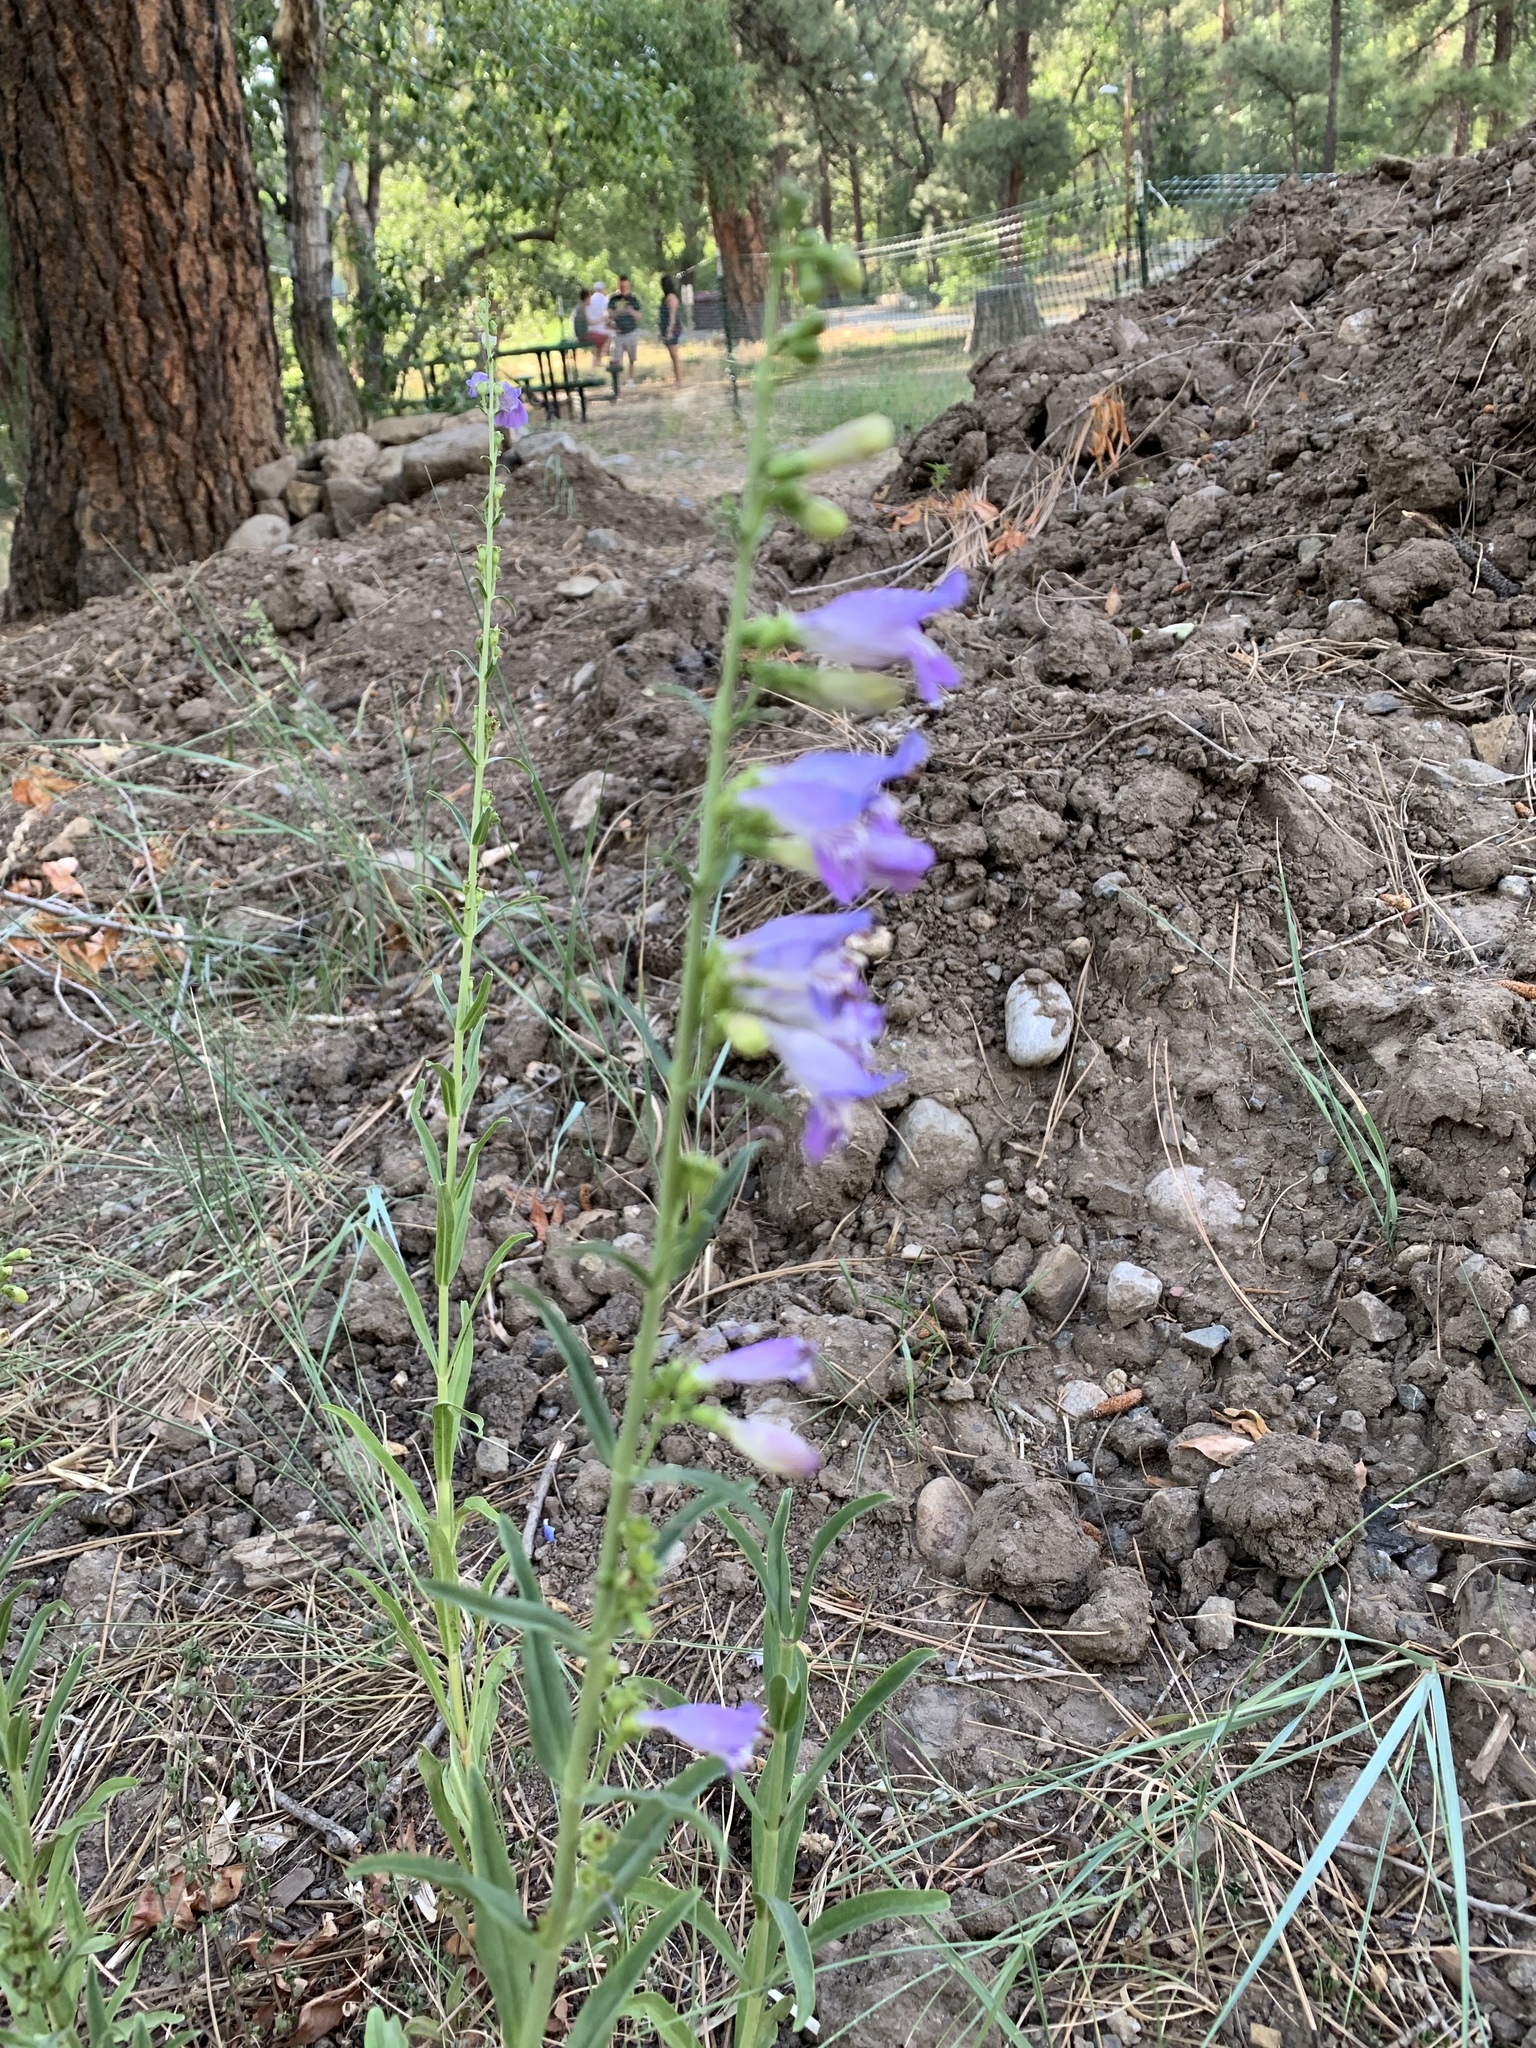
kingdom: Plantae
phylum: Tracheophyta
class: Magnoliopsida
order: Lamiales
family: Plantaginaceae
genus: Penstemon
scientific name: Penstemon neomexicanus
